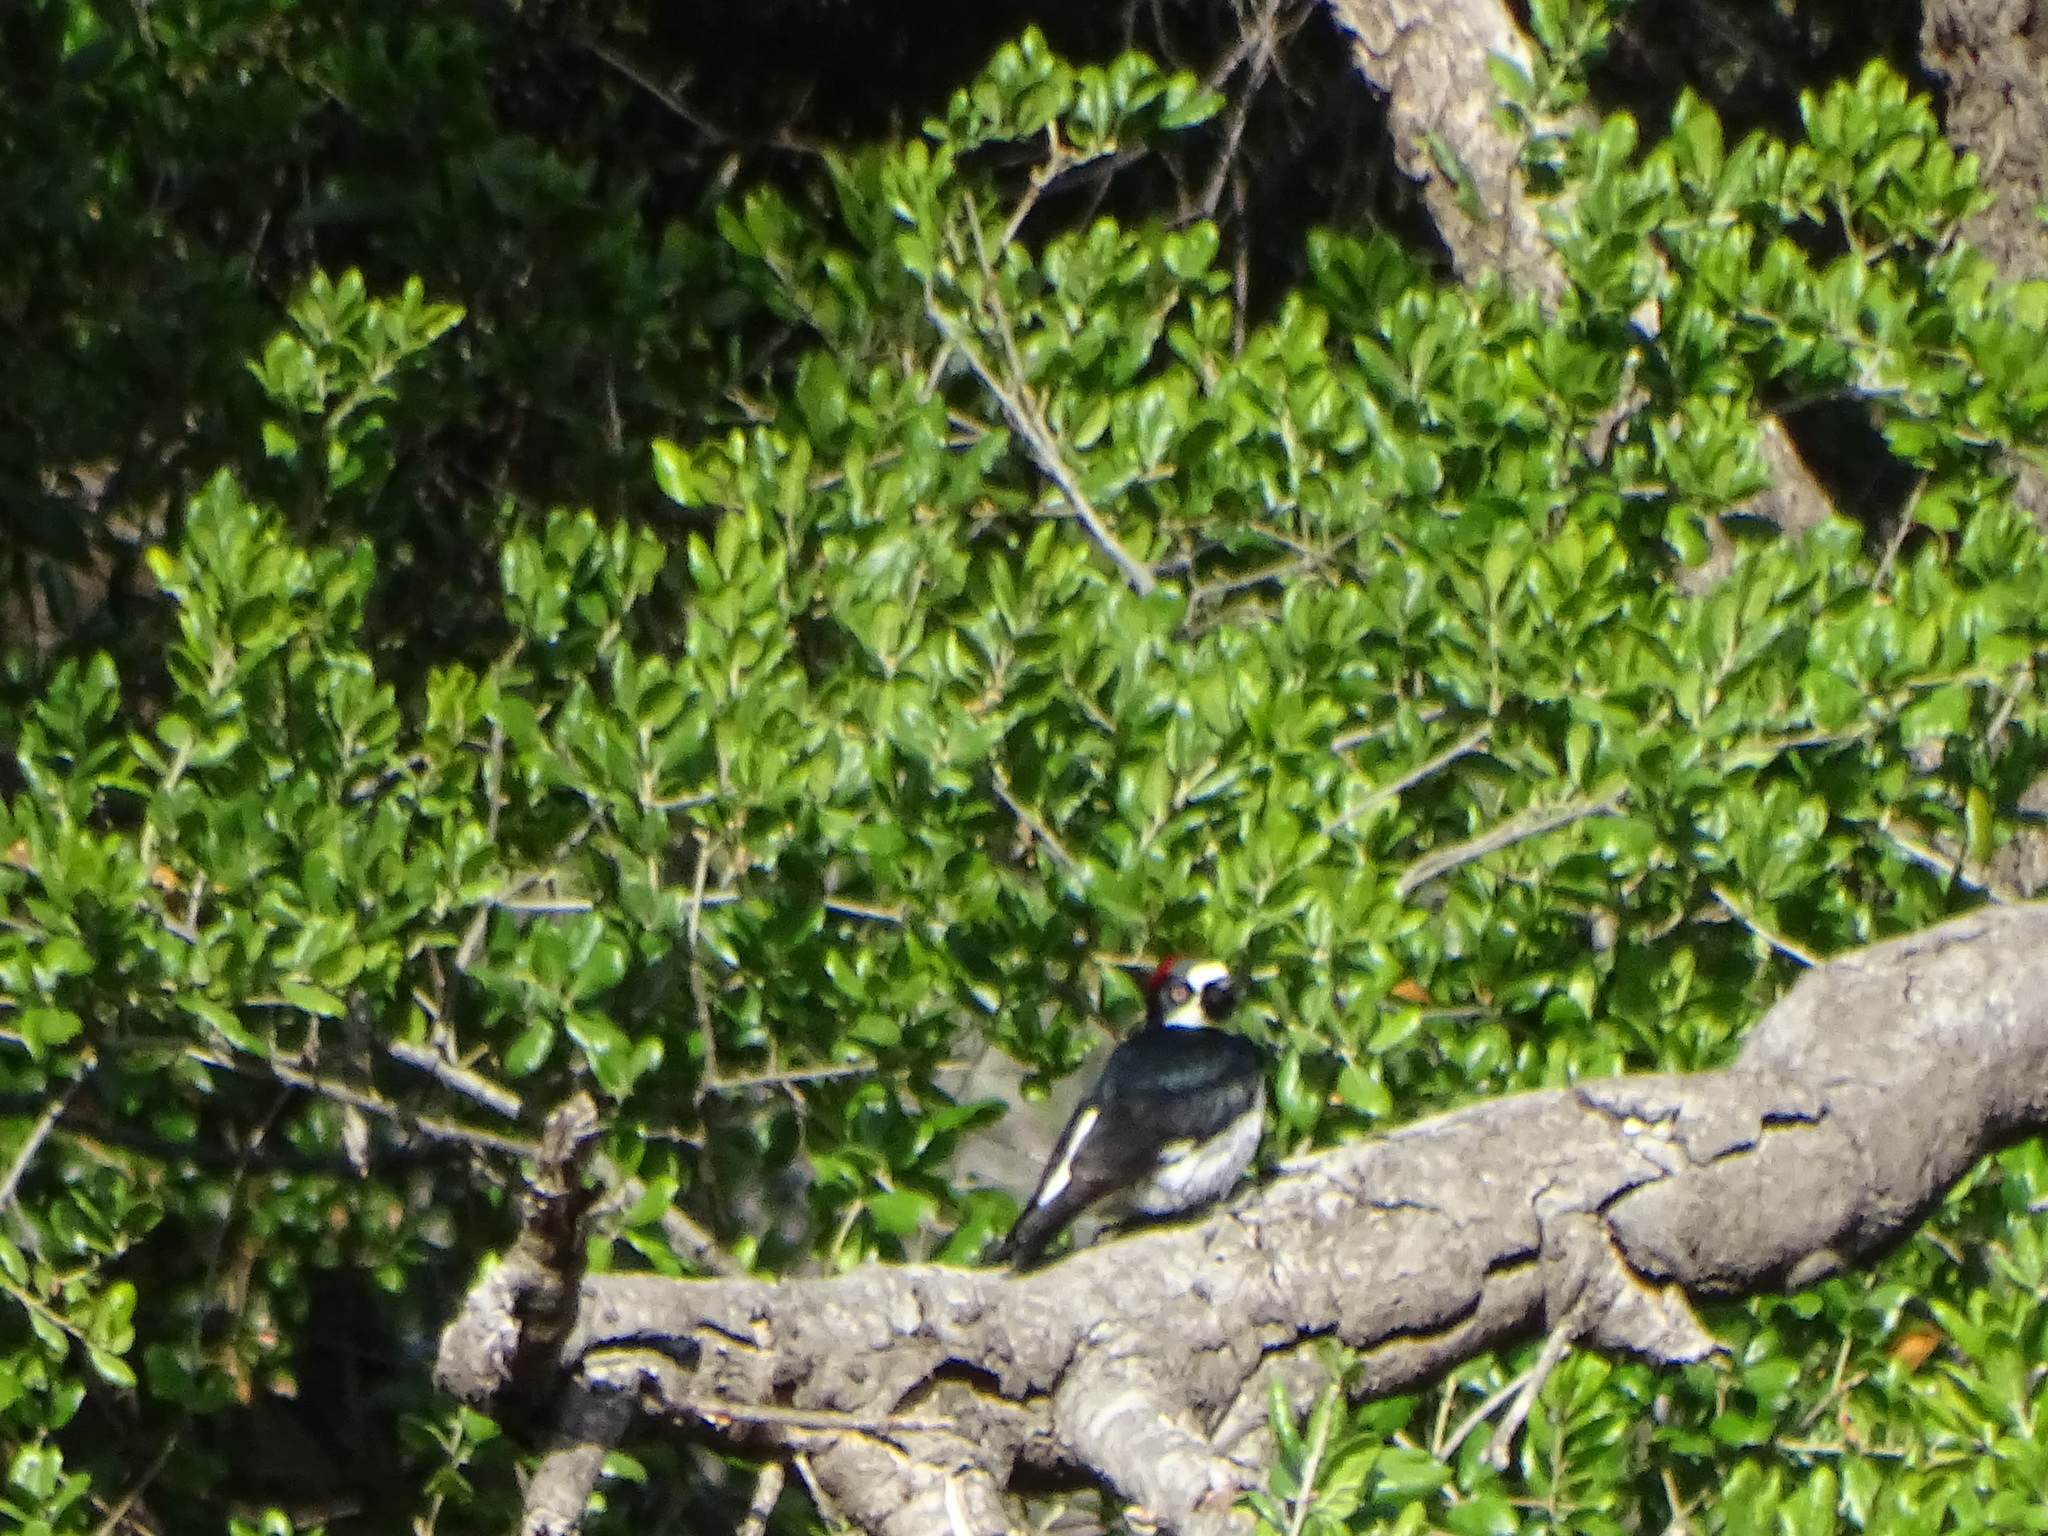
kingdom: Animalia
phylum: Chordata
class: Aves
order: Piciformes
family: Picidae
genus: Melanerpes
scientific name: Melanerpes formicivorus
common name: Acorn woodpecker
